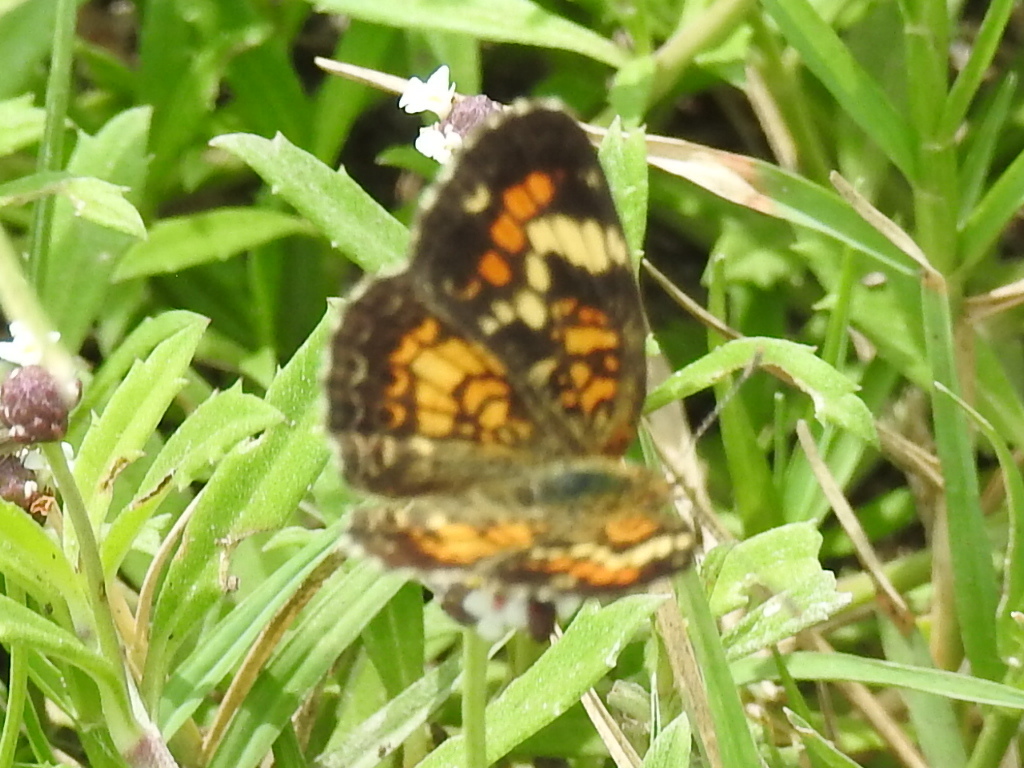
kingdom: Animalia
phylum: Arthropoda
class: Insecta
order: Lepidoptera
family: Nymphalidae
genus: Phyciodes
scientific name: Phyciodes phaon
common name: Phaon crescent
